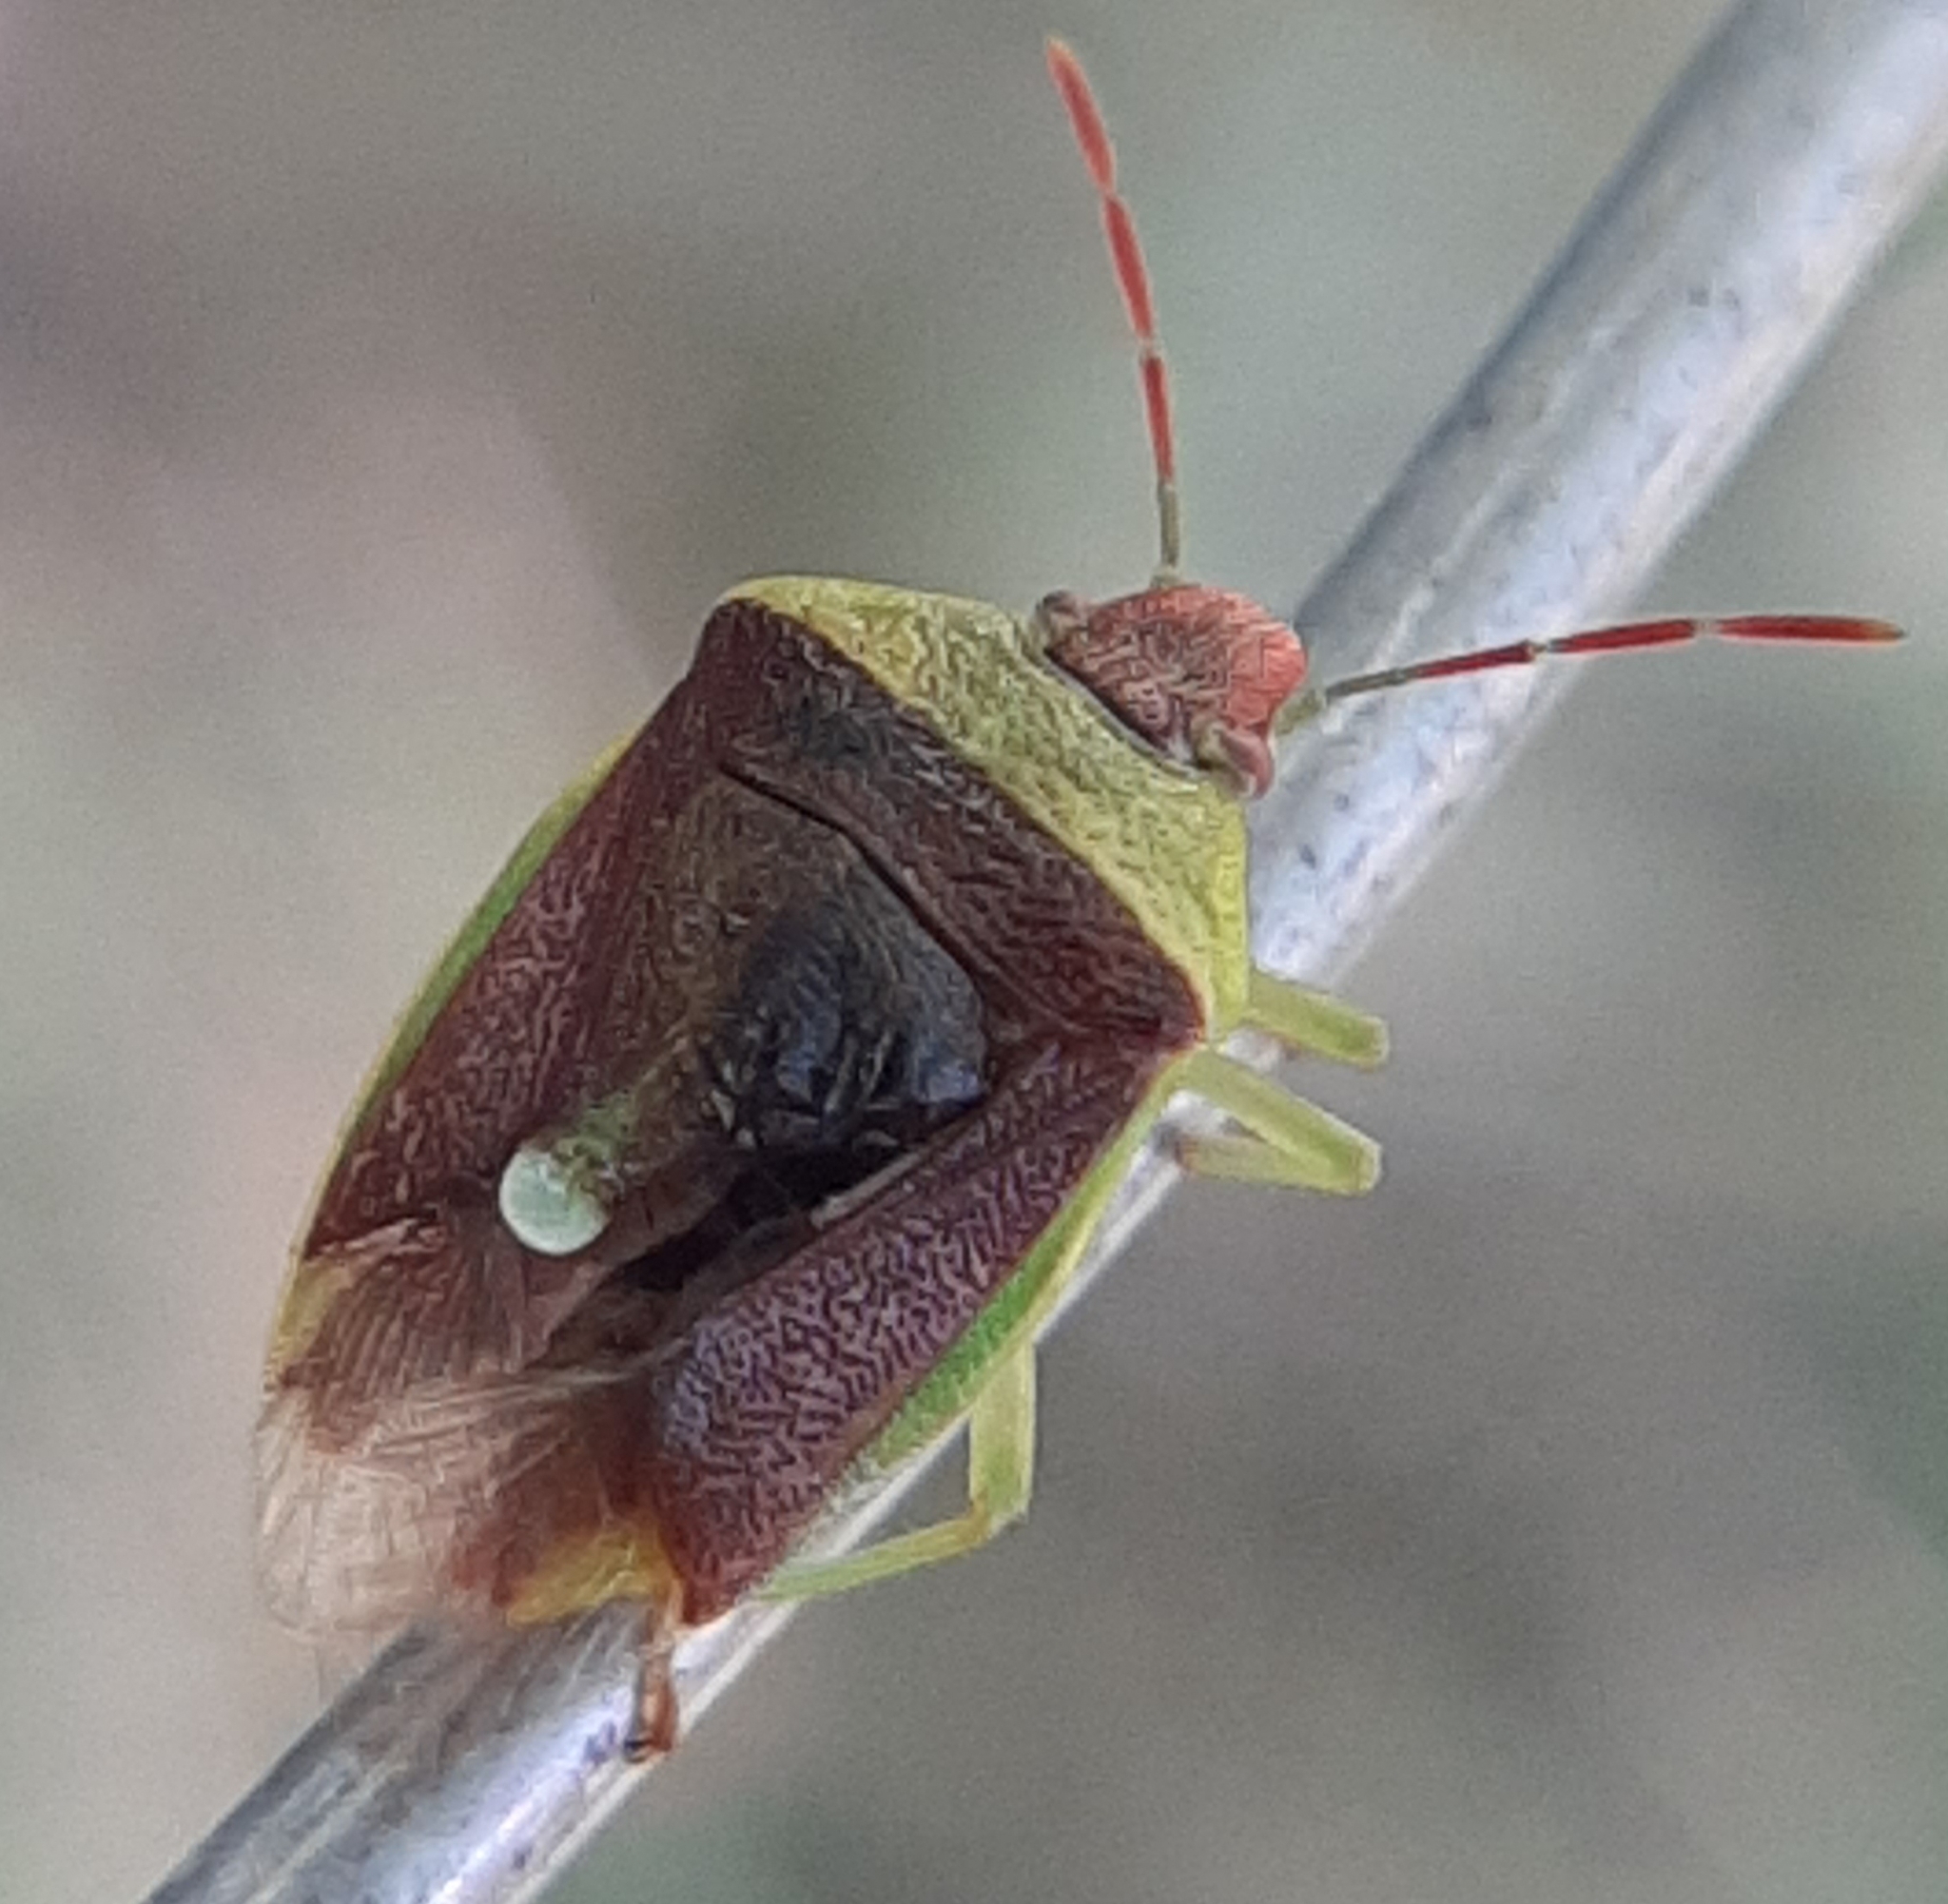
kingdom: Animalia
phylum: Arthropoda
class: Insecta
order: Hemiptera
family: Pentatomidae
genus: Banasa
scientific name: Banasa dimidiata
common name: Green burgundy stink bug
